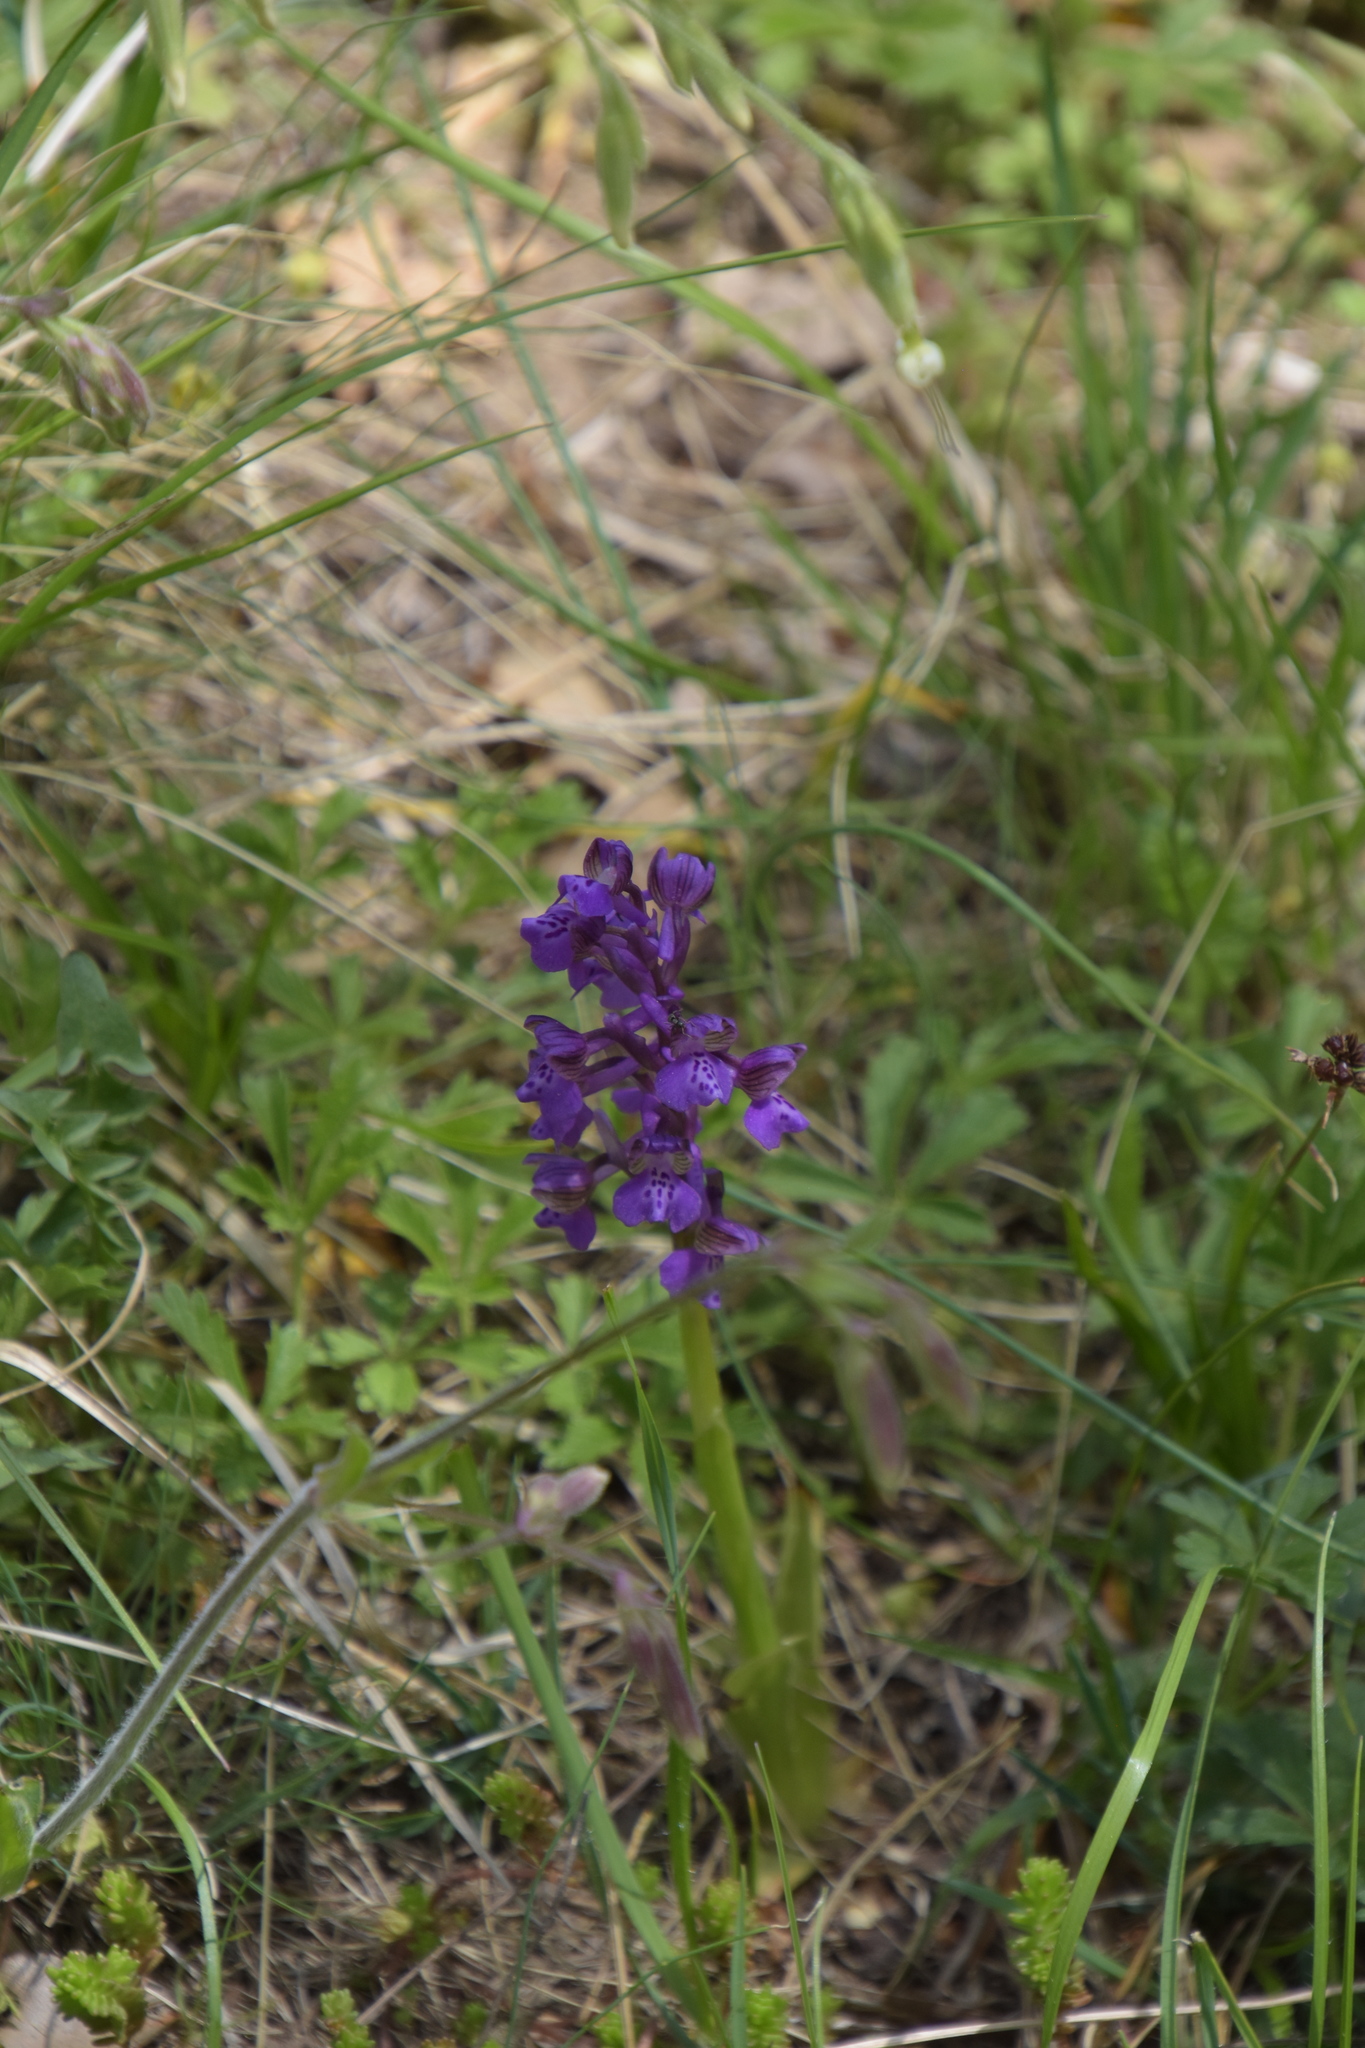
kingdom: Plantae
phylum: Tracheophyta
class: Liliopsida
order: Asparagales
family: Orchidaceae
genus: Anacamptis
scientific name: Anacamptis morio
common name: Green-winged orchid
